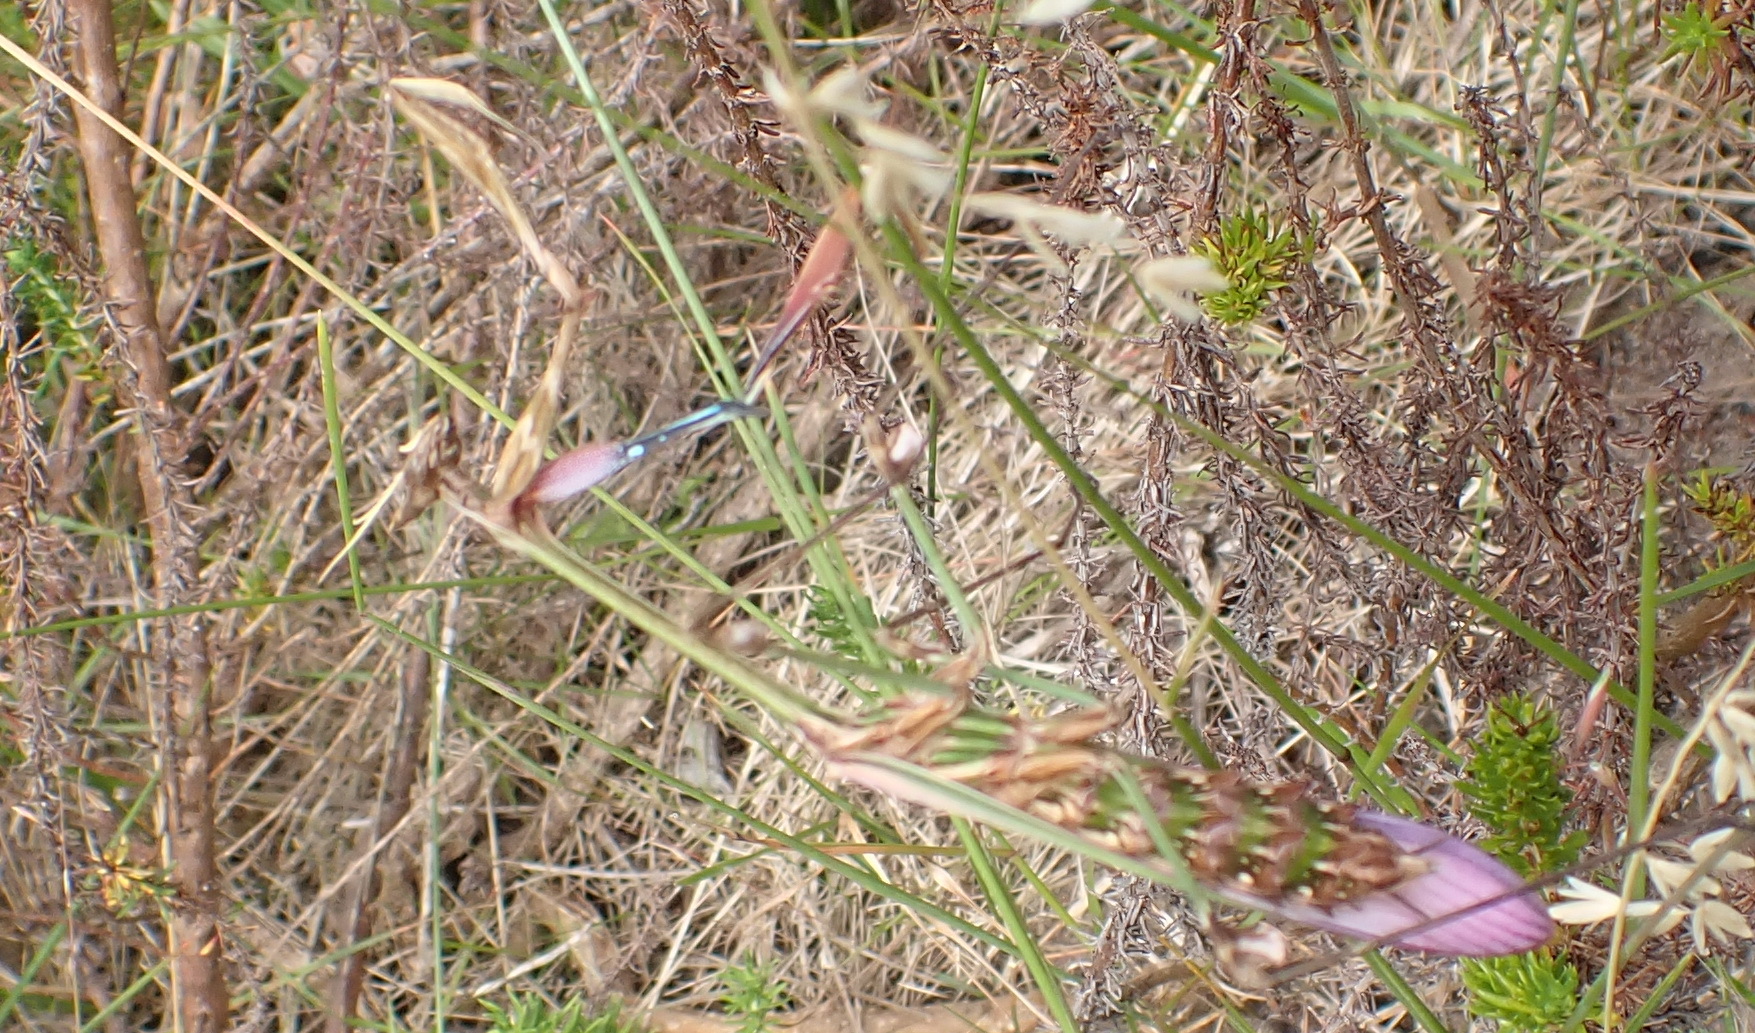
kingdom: Animalia
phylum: Arthropoda
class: Insecta
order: Mantodea
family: Empusidae
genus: Hemiempusa
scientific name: Hemiempusa capensis
